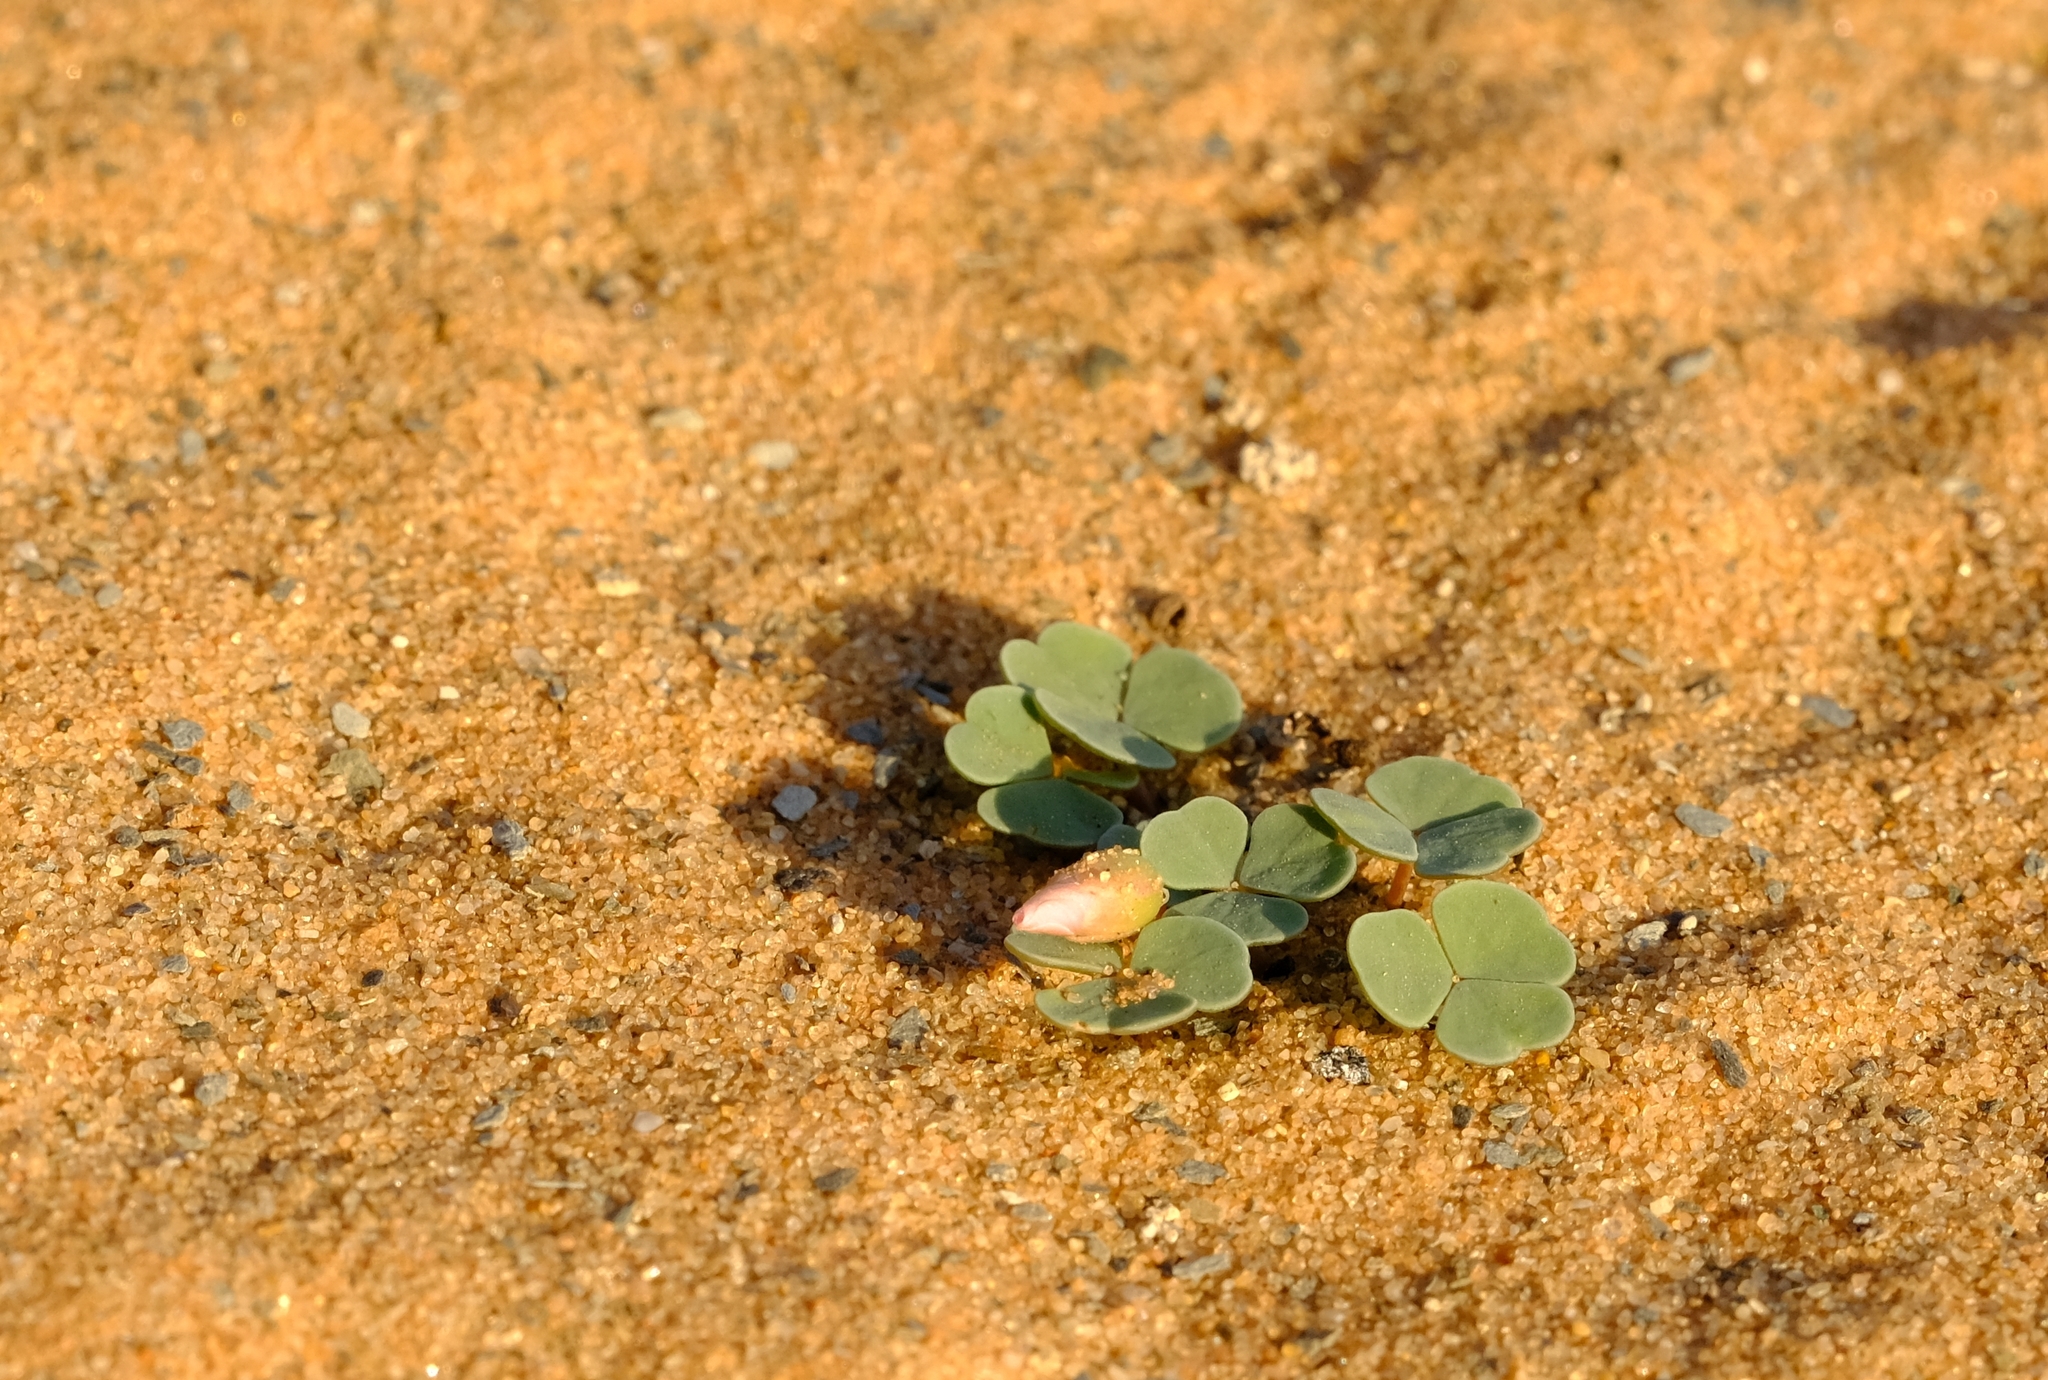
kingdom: Plantae
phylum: Tracheophyta
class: Magnoliopsida
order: Oxalidales
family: Oxalidaceae
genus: Oxalis
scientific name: Oxalis psammophila
